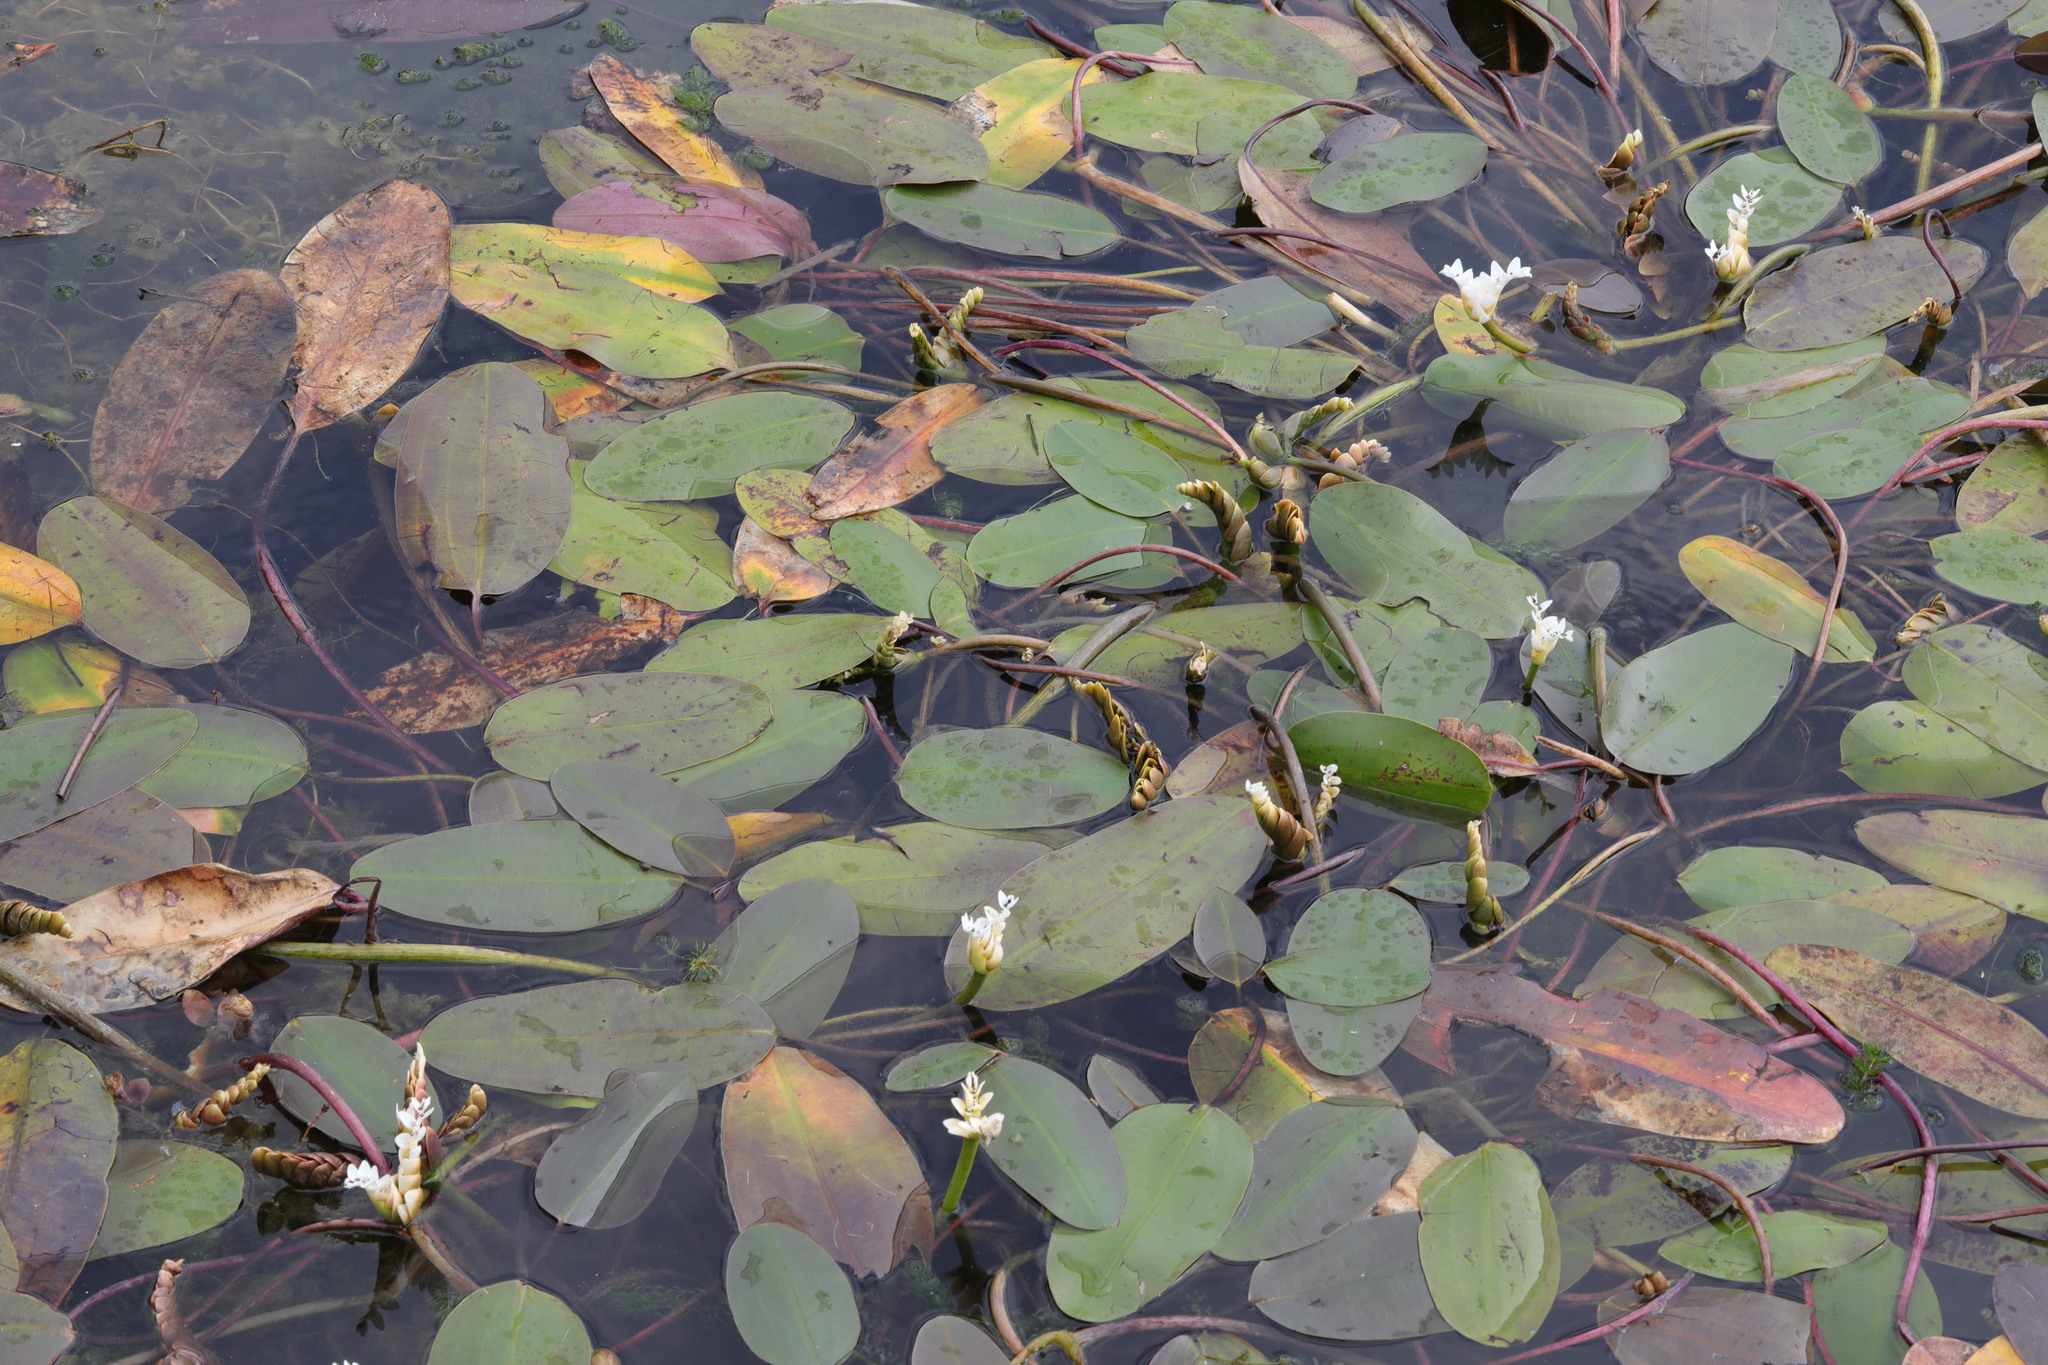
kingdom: Plantae
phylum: Tracheophyta
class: Liliopsida
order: Alismatales
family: Aponogetonaceae
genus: Aponogeton
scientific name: Aponogeton distachyos
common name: Cape-pondweed
